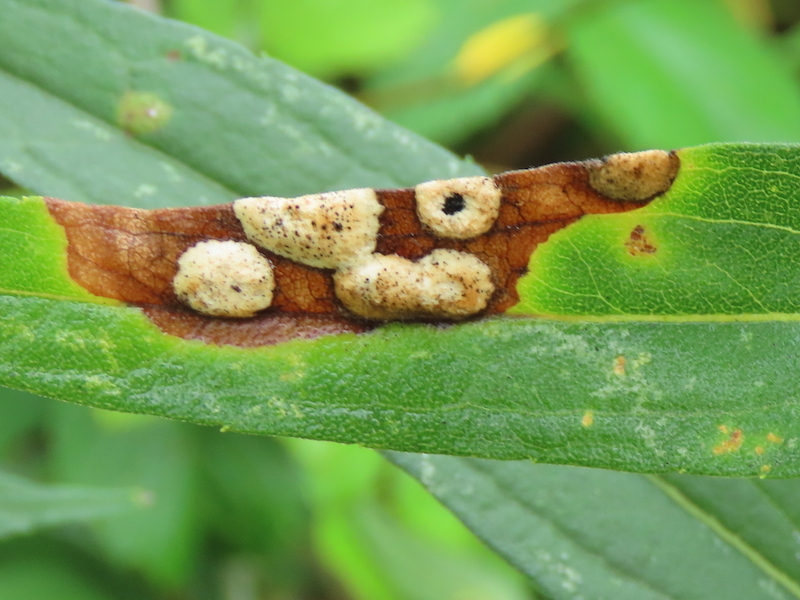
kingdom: Animalia
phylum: Arthropoda
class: Insecta
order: Diptera
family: Cecidomyiidae
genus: Asteromyia
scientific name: Asteromyia carbonifera
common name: Carbonifera goldenrod gall midge
